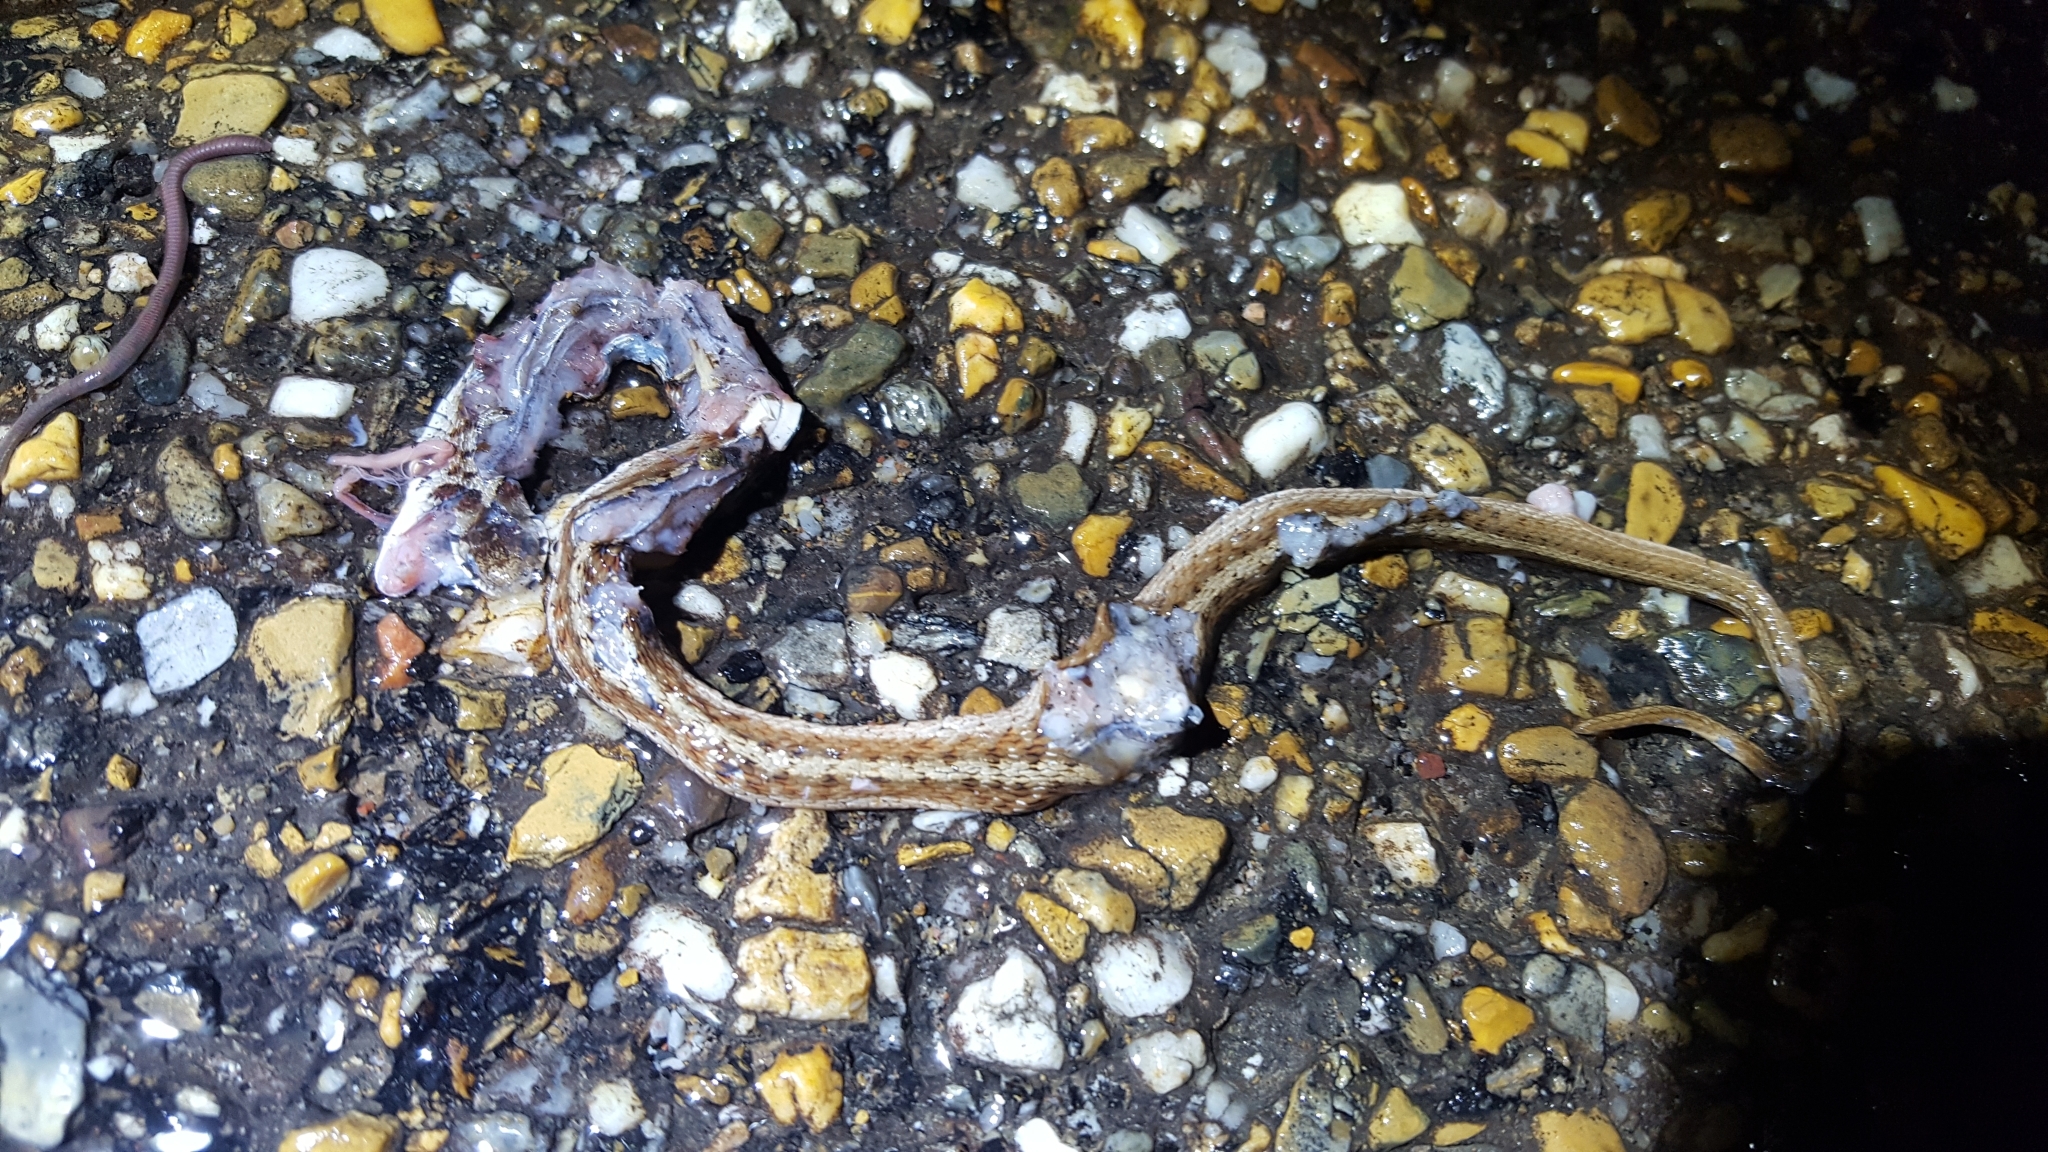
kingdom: Animalia
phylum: Chordata
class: Squamata
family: Colubridae
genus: Storeria
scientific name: Storeria dekayi
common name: (dekay’s) brown snake
